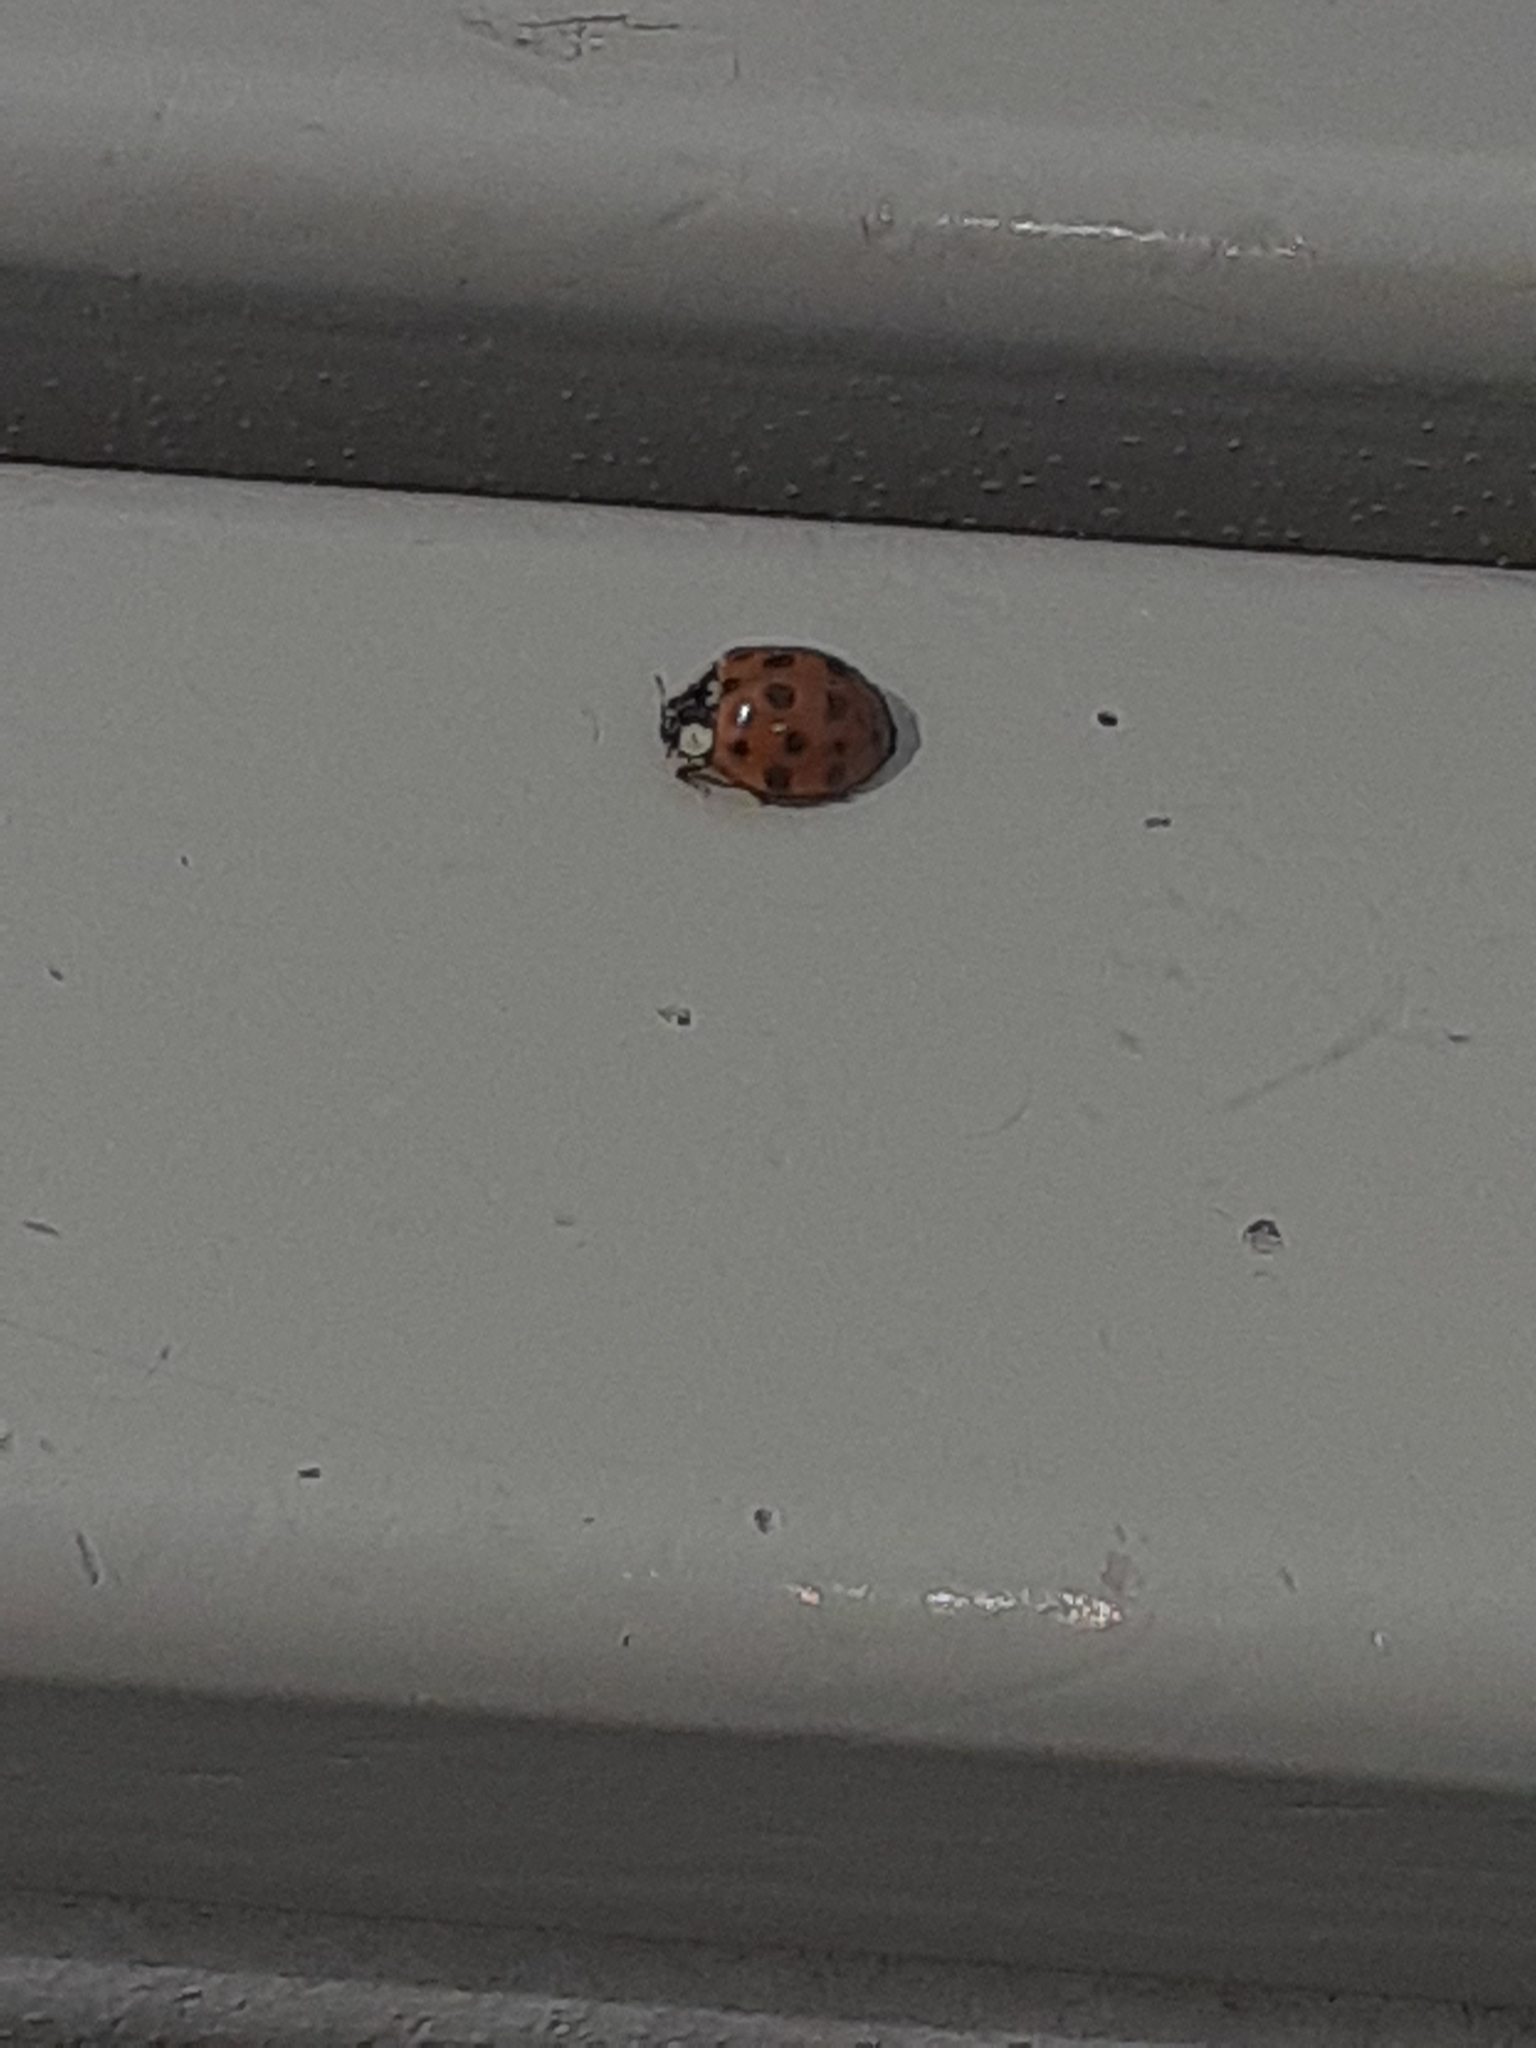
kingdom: Animalia
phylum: Arthropoda
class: Insecta
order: Coleoptera
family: Coccinellidae
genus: Harmonia
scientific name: Harmonia axyridis
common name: Harlequin ladybird
